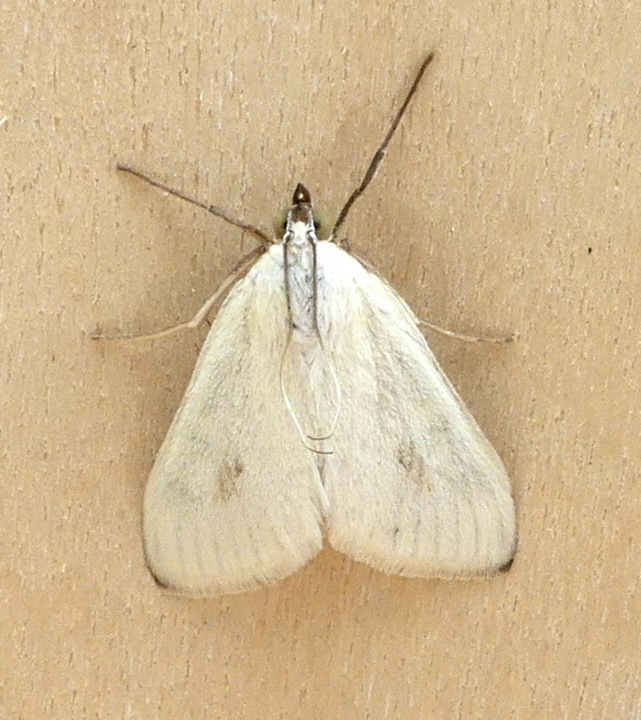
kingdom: Animalia
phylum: Arthropoda
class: Insecta
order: Lepidoptera
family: Crambidae
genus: Sitochroa
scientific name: Sitochroa palealis
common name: Greenish-yellow sitochroa moth
